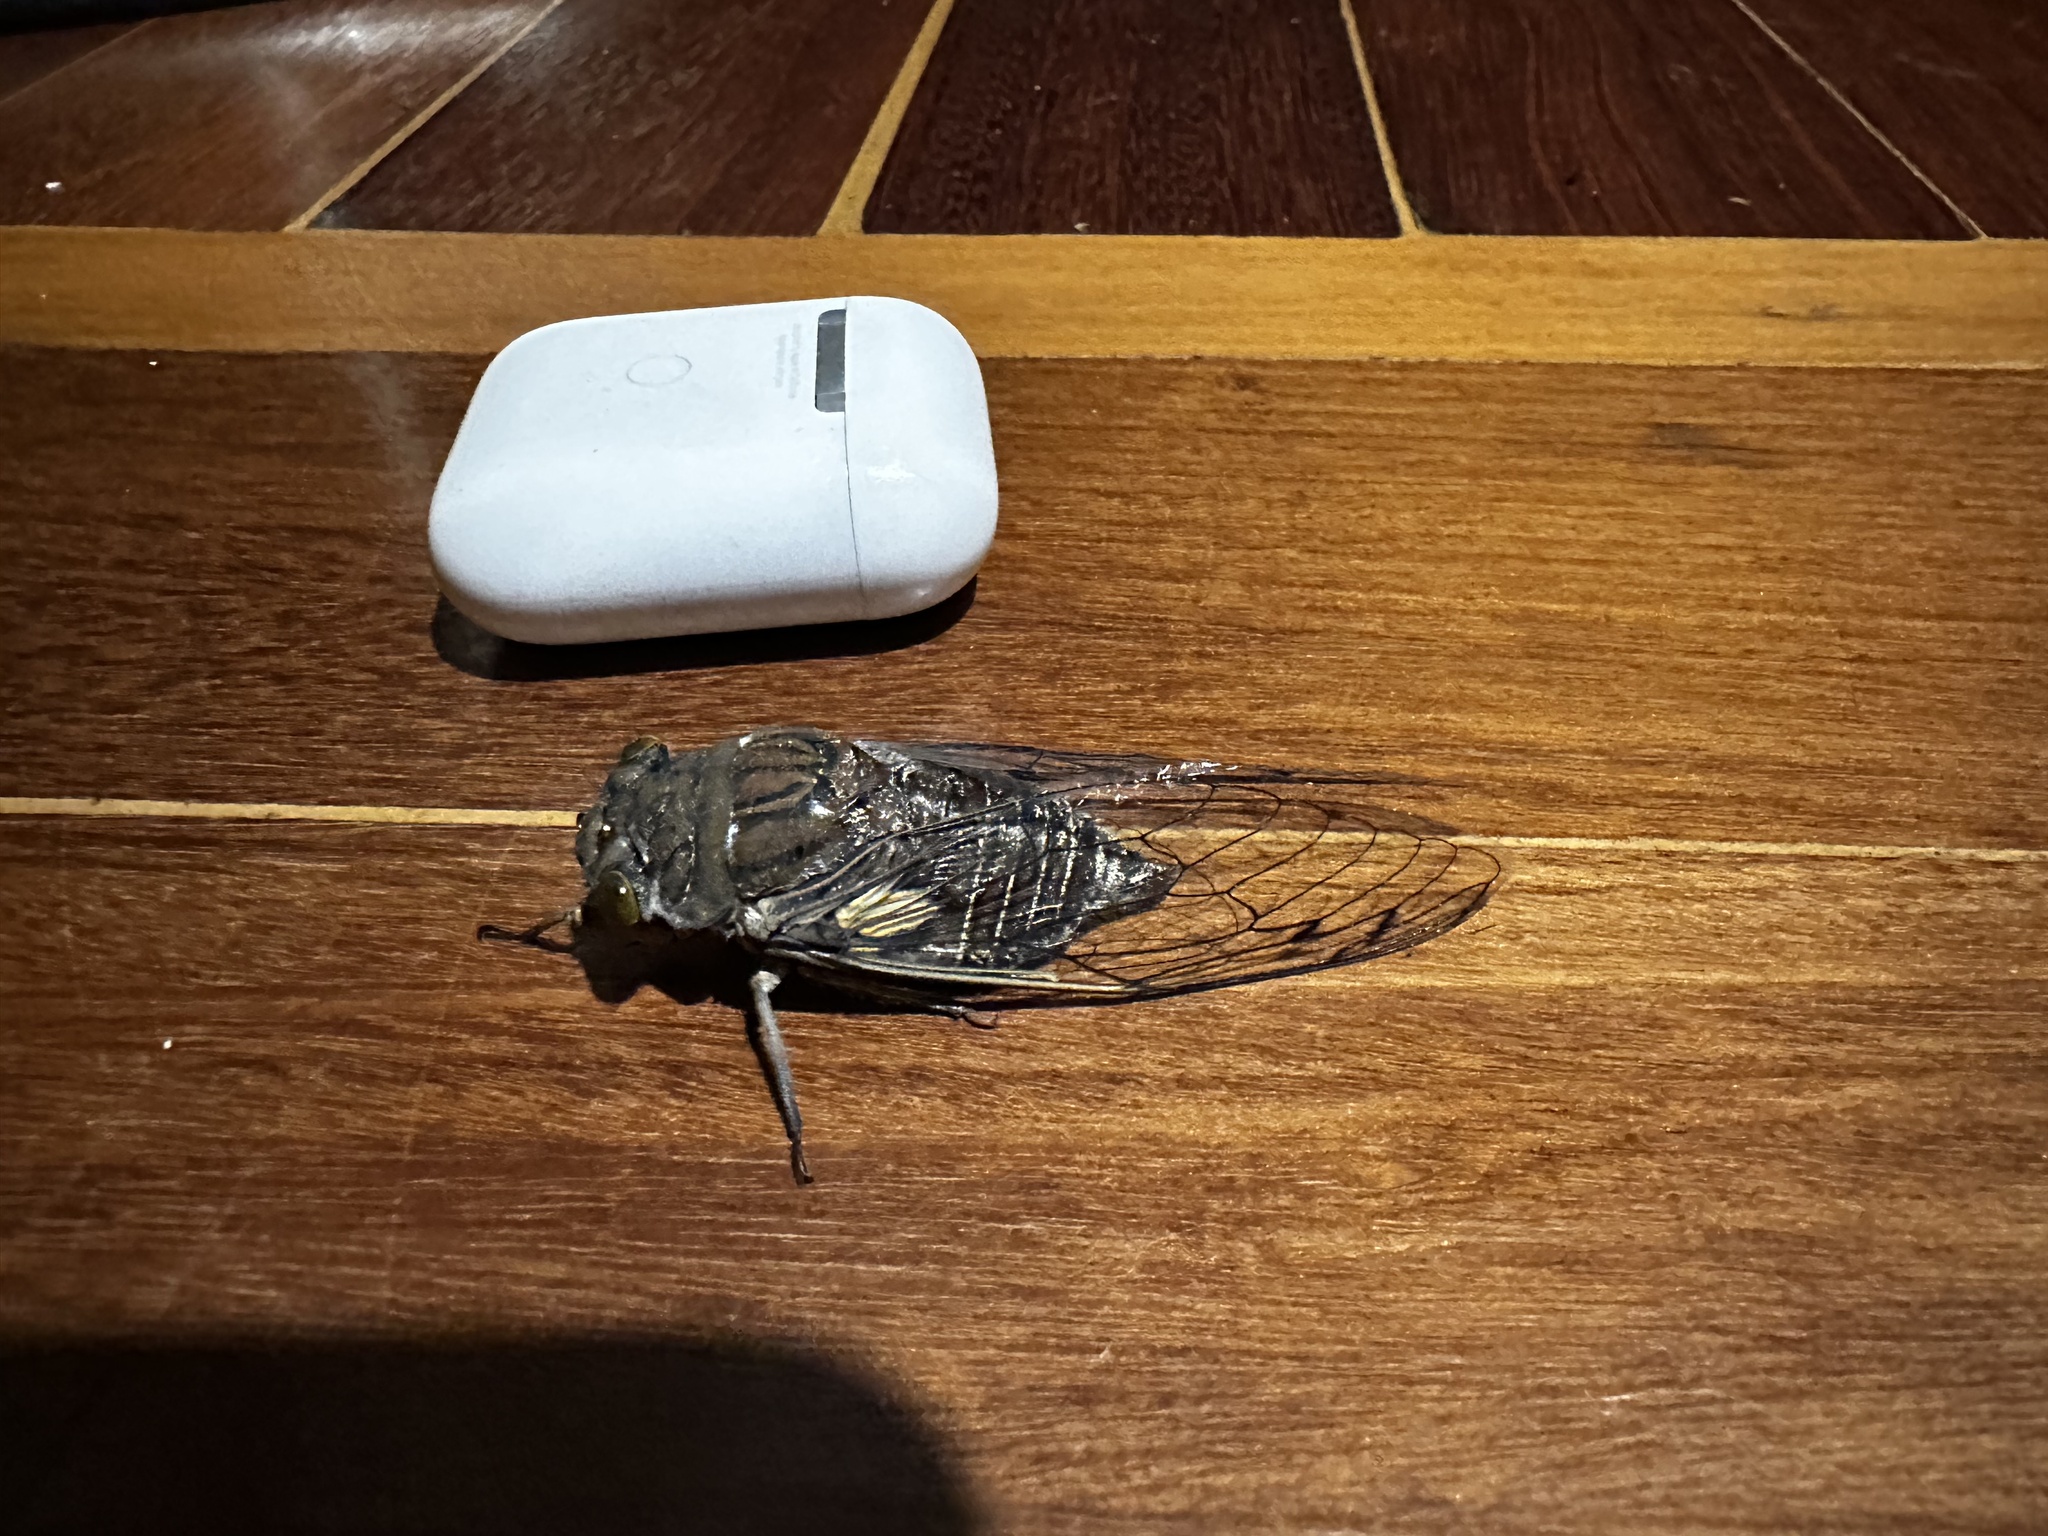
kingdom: Animalia
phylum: Arthropoda
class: Insecta
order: Hemiptera
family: Cicadidae
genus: Quesada
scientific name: Quesada gigas
